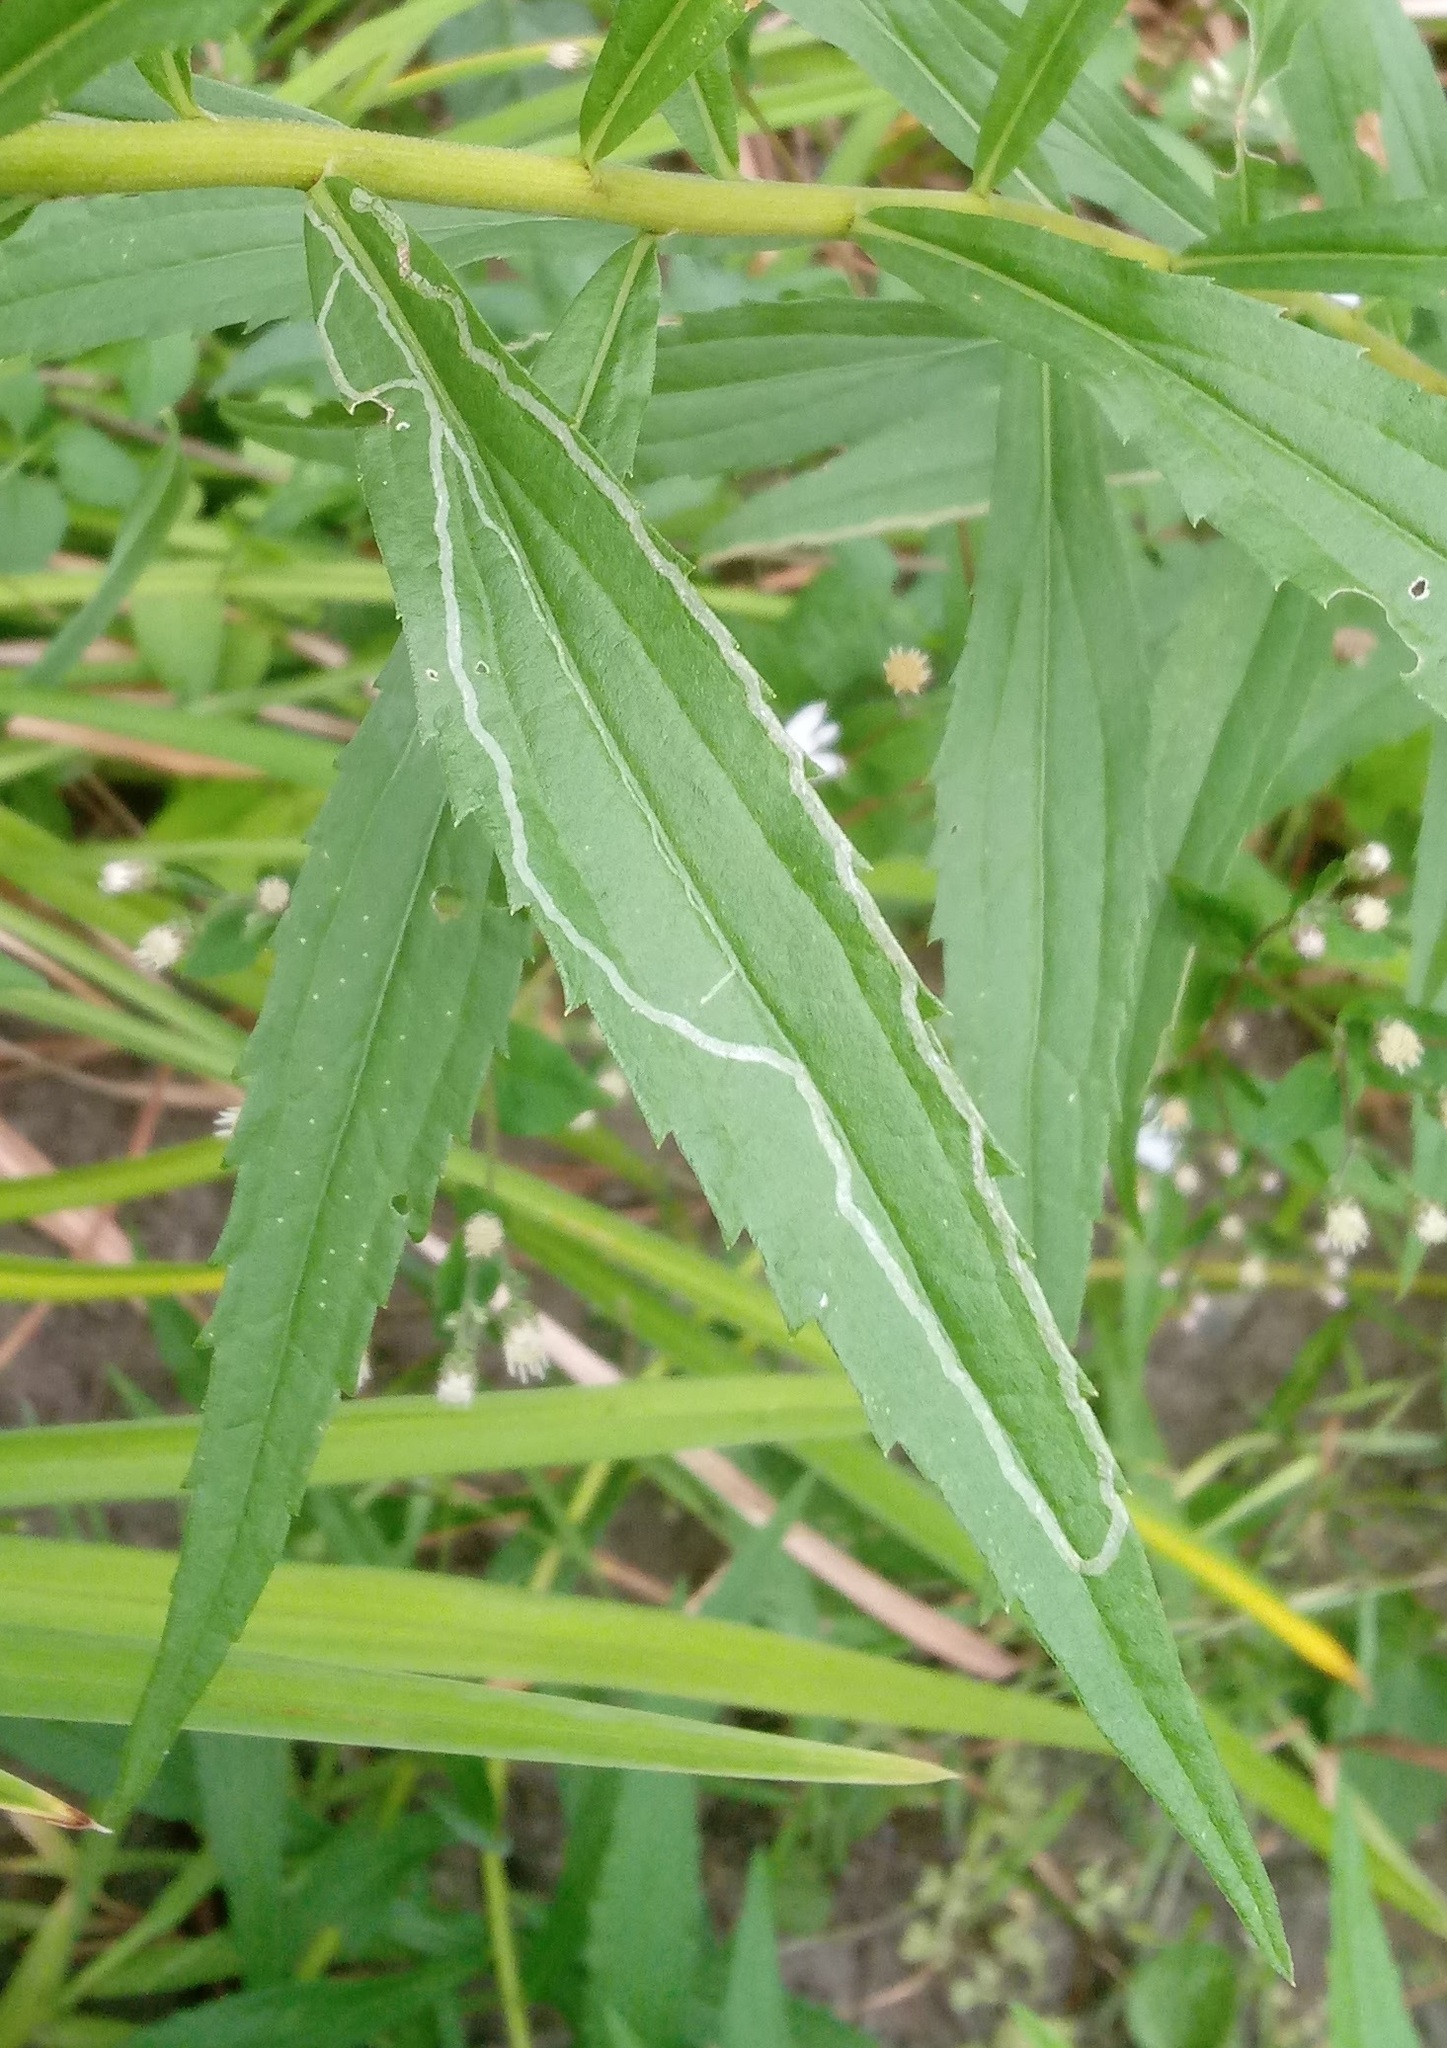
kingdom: Animalia
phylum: Arthropoda
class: Insecta
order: Diptera
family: Agromyzidae
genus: Ophiomyia
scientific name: Ophiomyia maura
